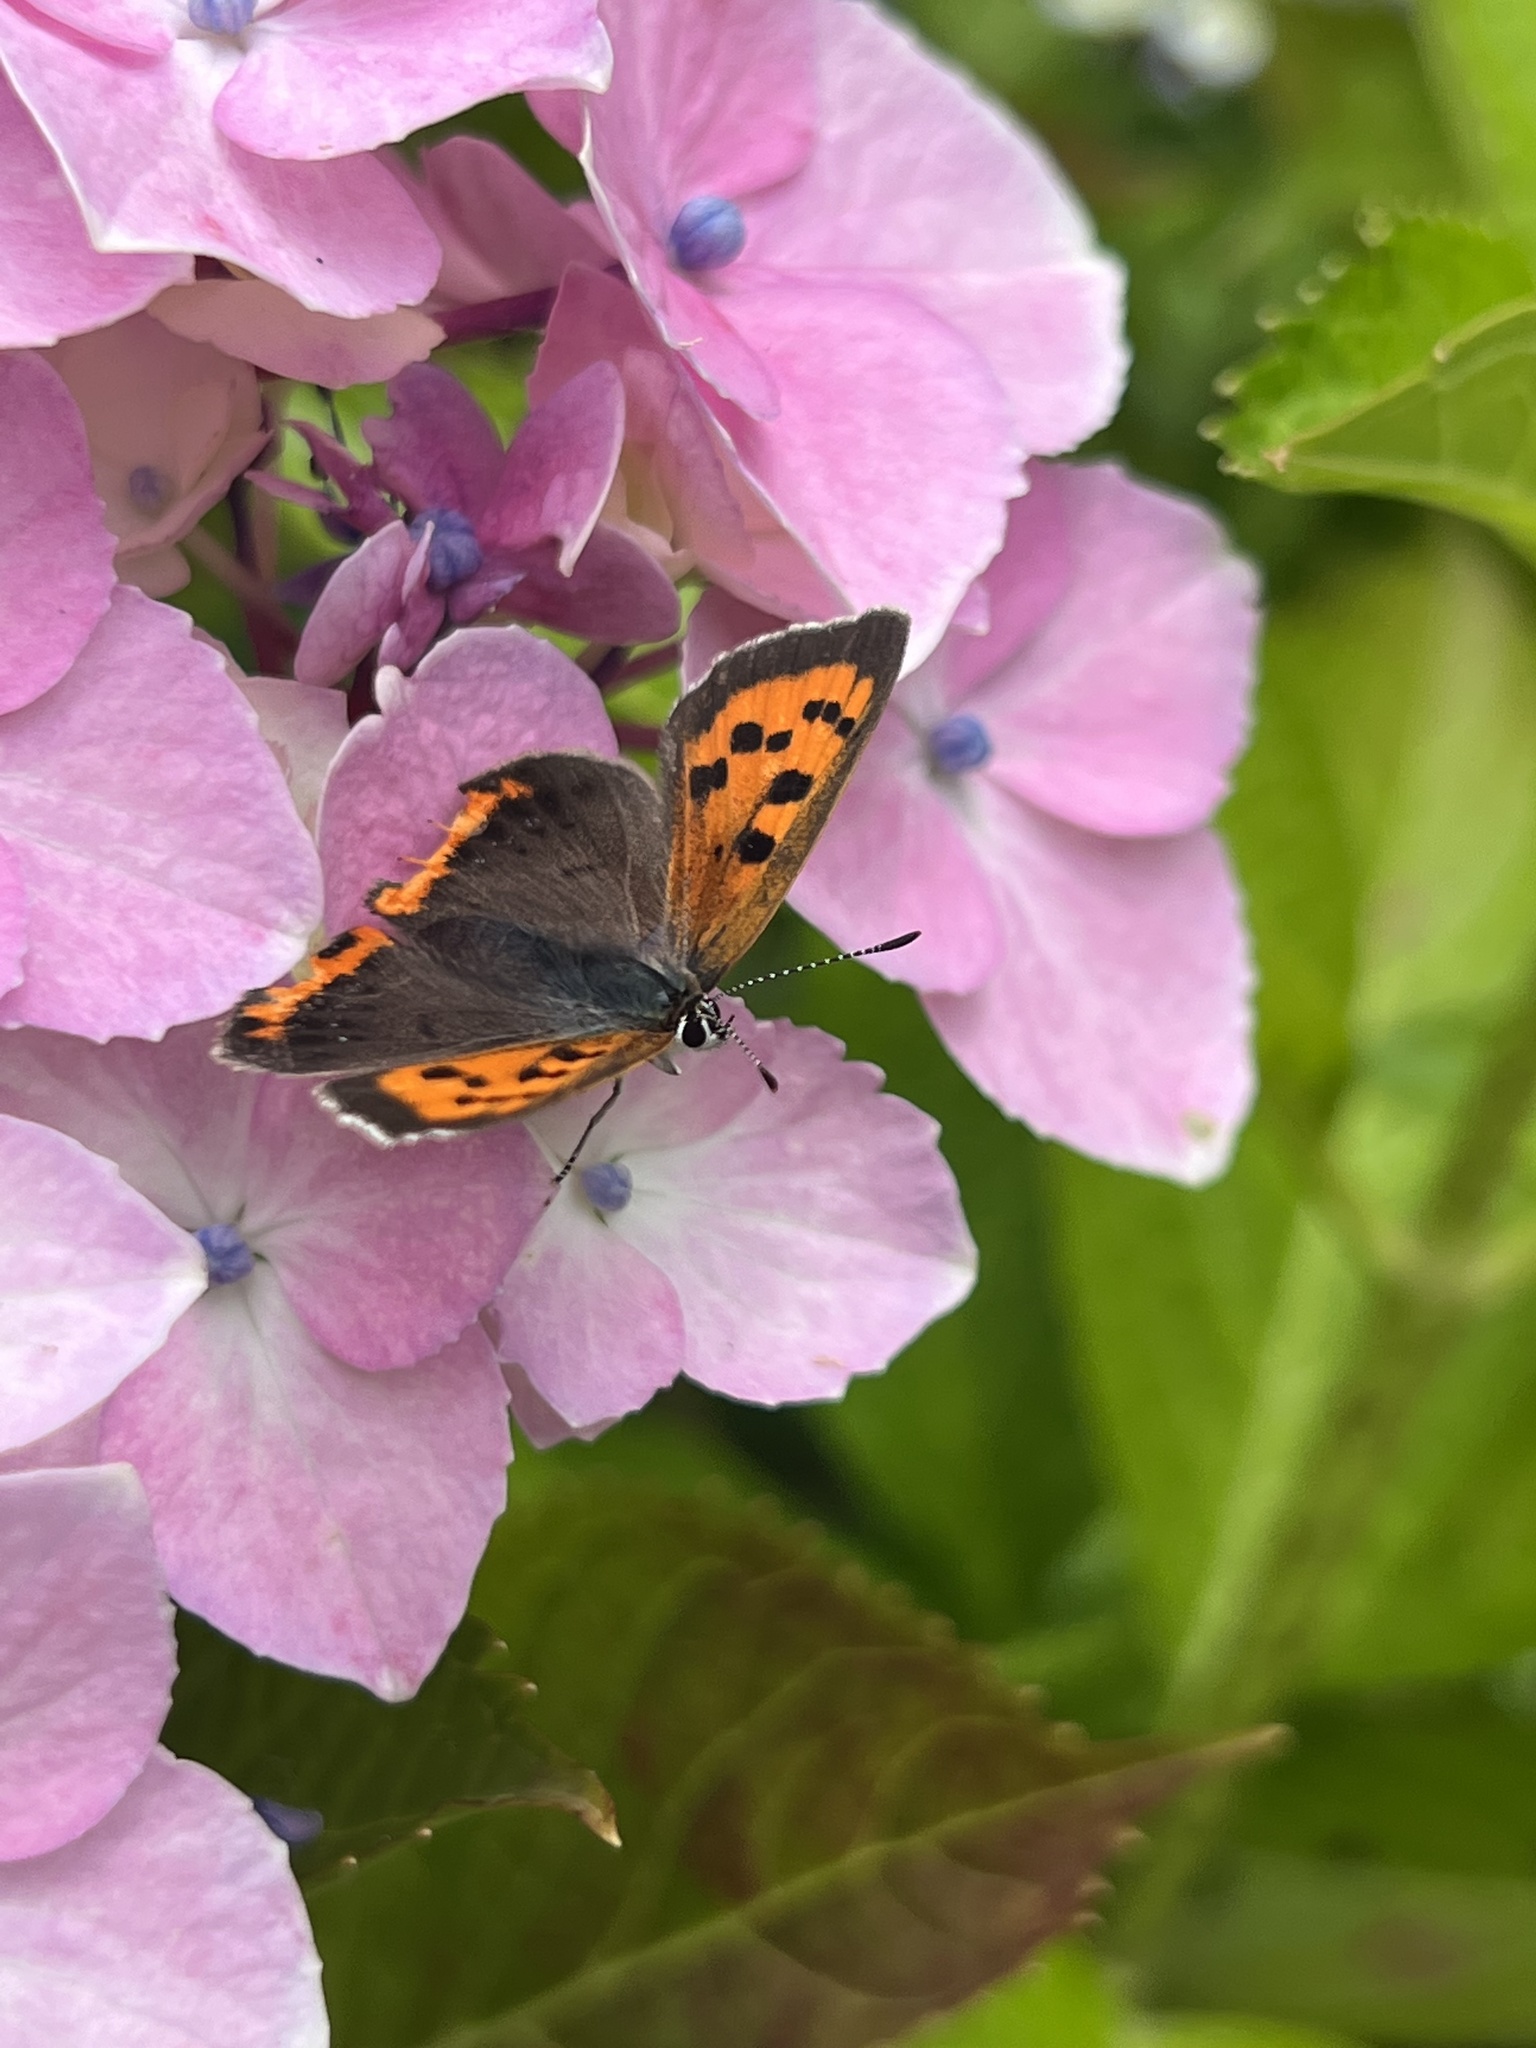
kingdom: Animalia
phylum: Arthropoda
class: Insecta
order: Lepidoptera
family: Lycaenidae
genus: Lycaena
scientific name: Lycaena phlaeas
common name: Small copper
